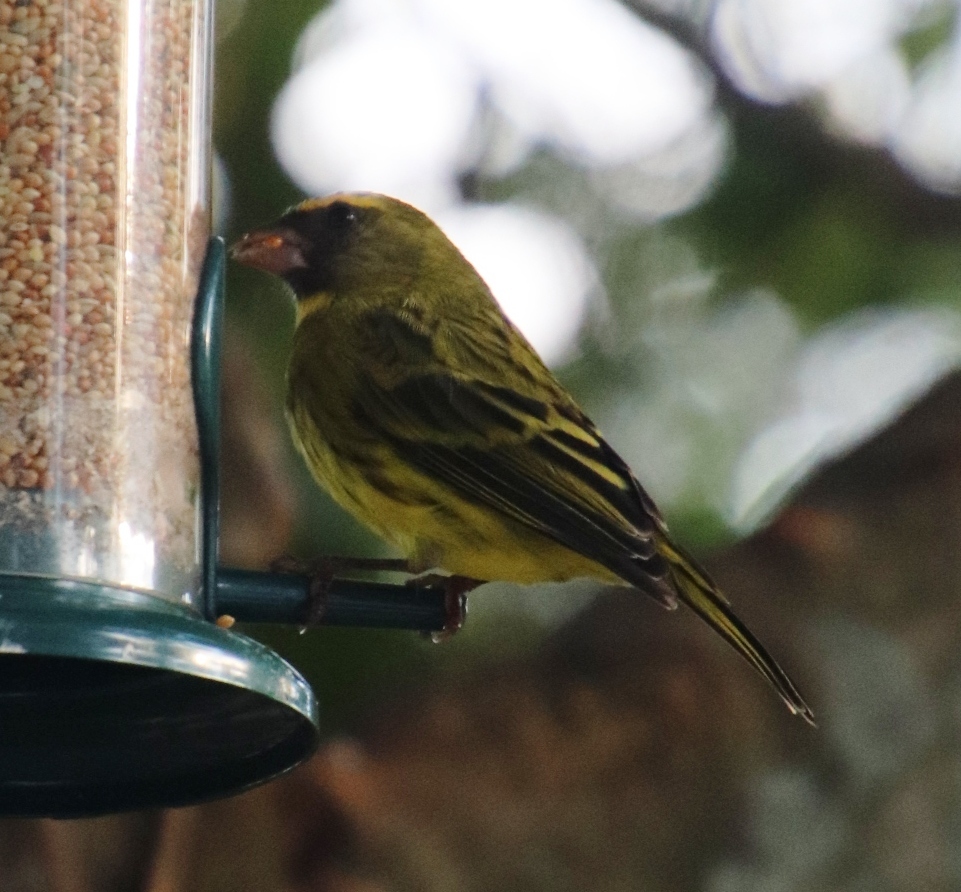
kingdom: Animalia
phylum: Chordata
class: Aves
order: Passeriformes
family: Fringillidae
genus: Crithagra
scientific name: Crithagra scotops
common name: Forest canary
